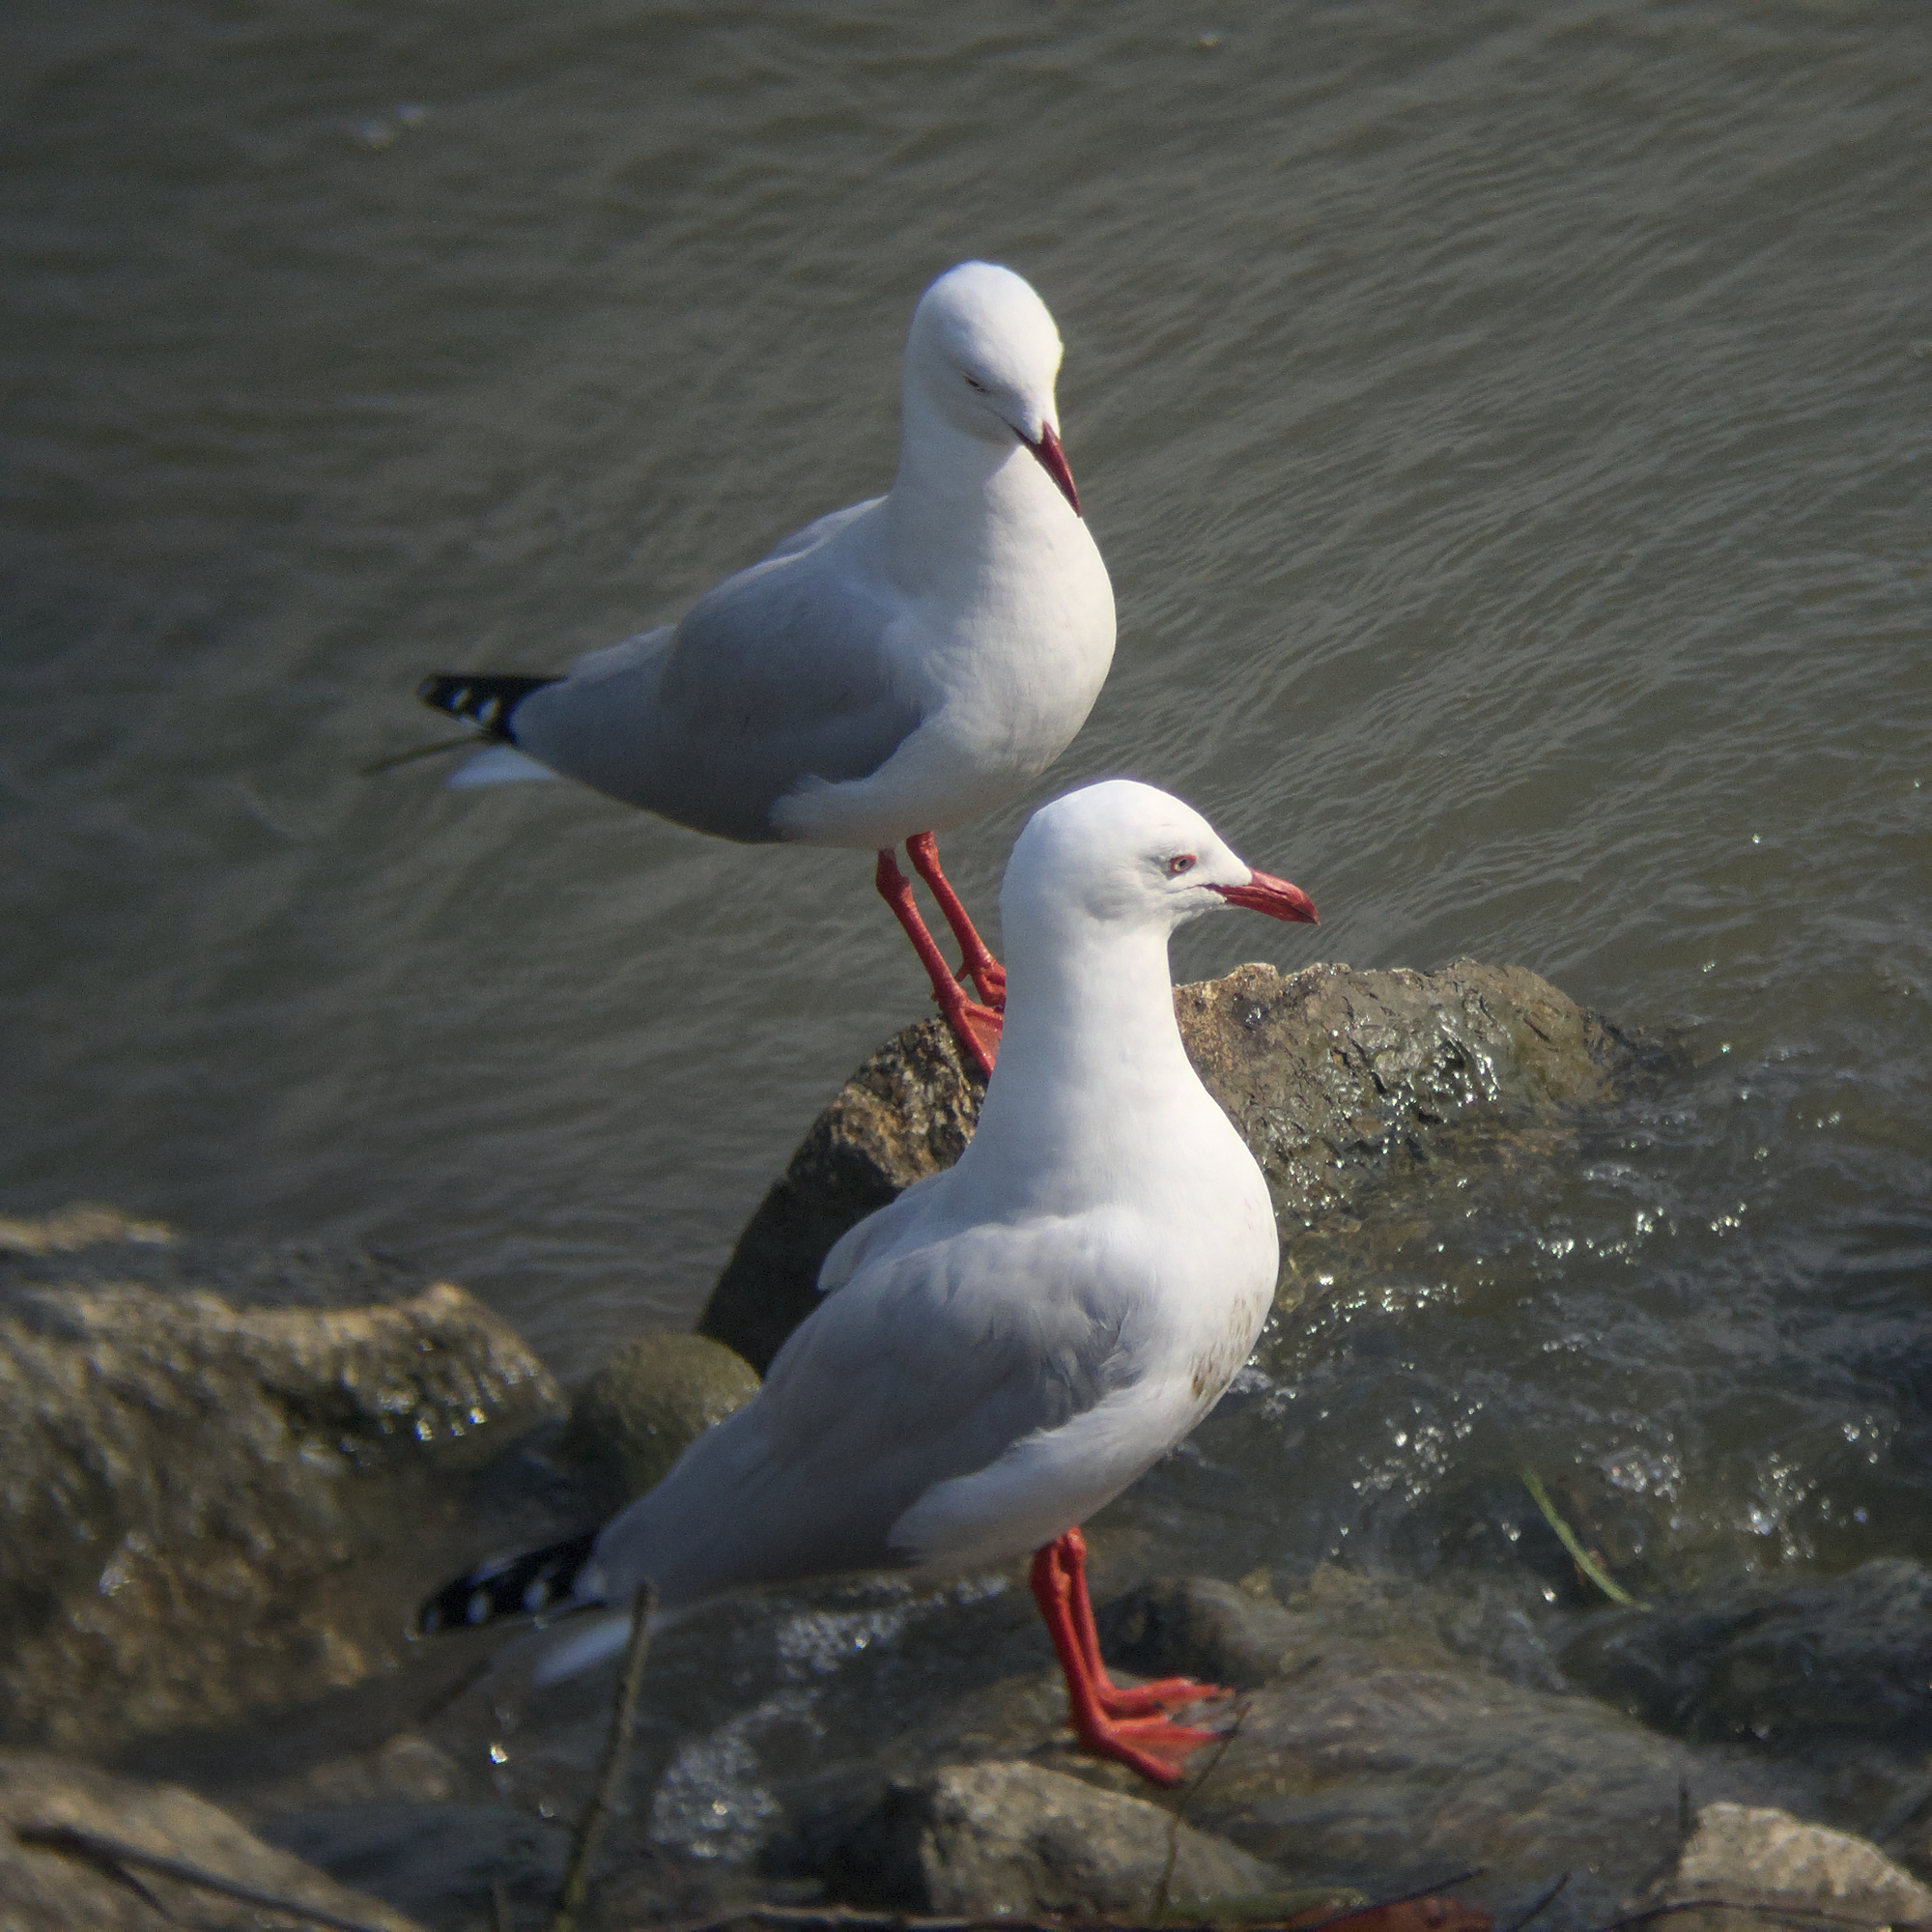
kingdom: Animalia
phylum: Chordata
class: Aves
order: Charadriiformes
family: Laridae
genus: Chroicocephalus
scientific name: Chroicocephalus novaehollandiae
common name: Silver gull
